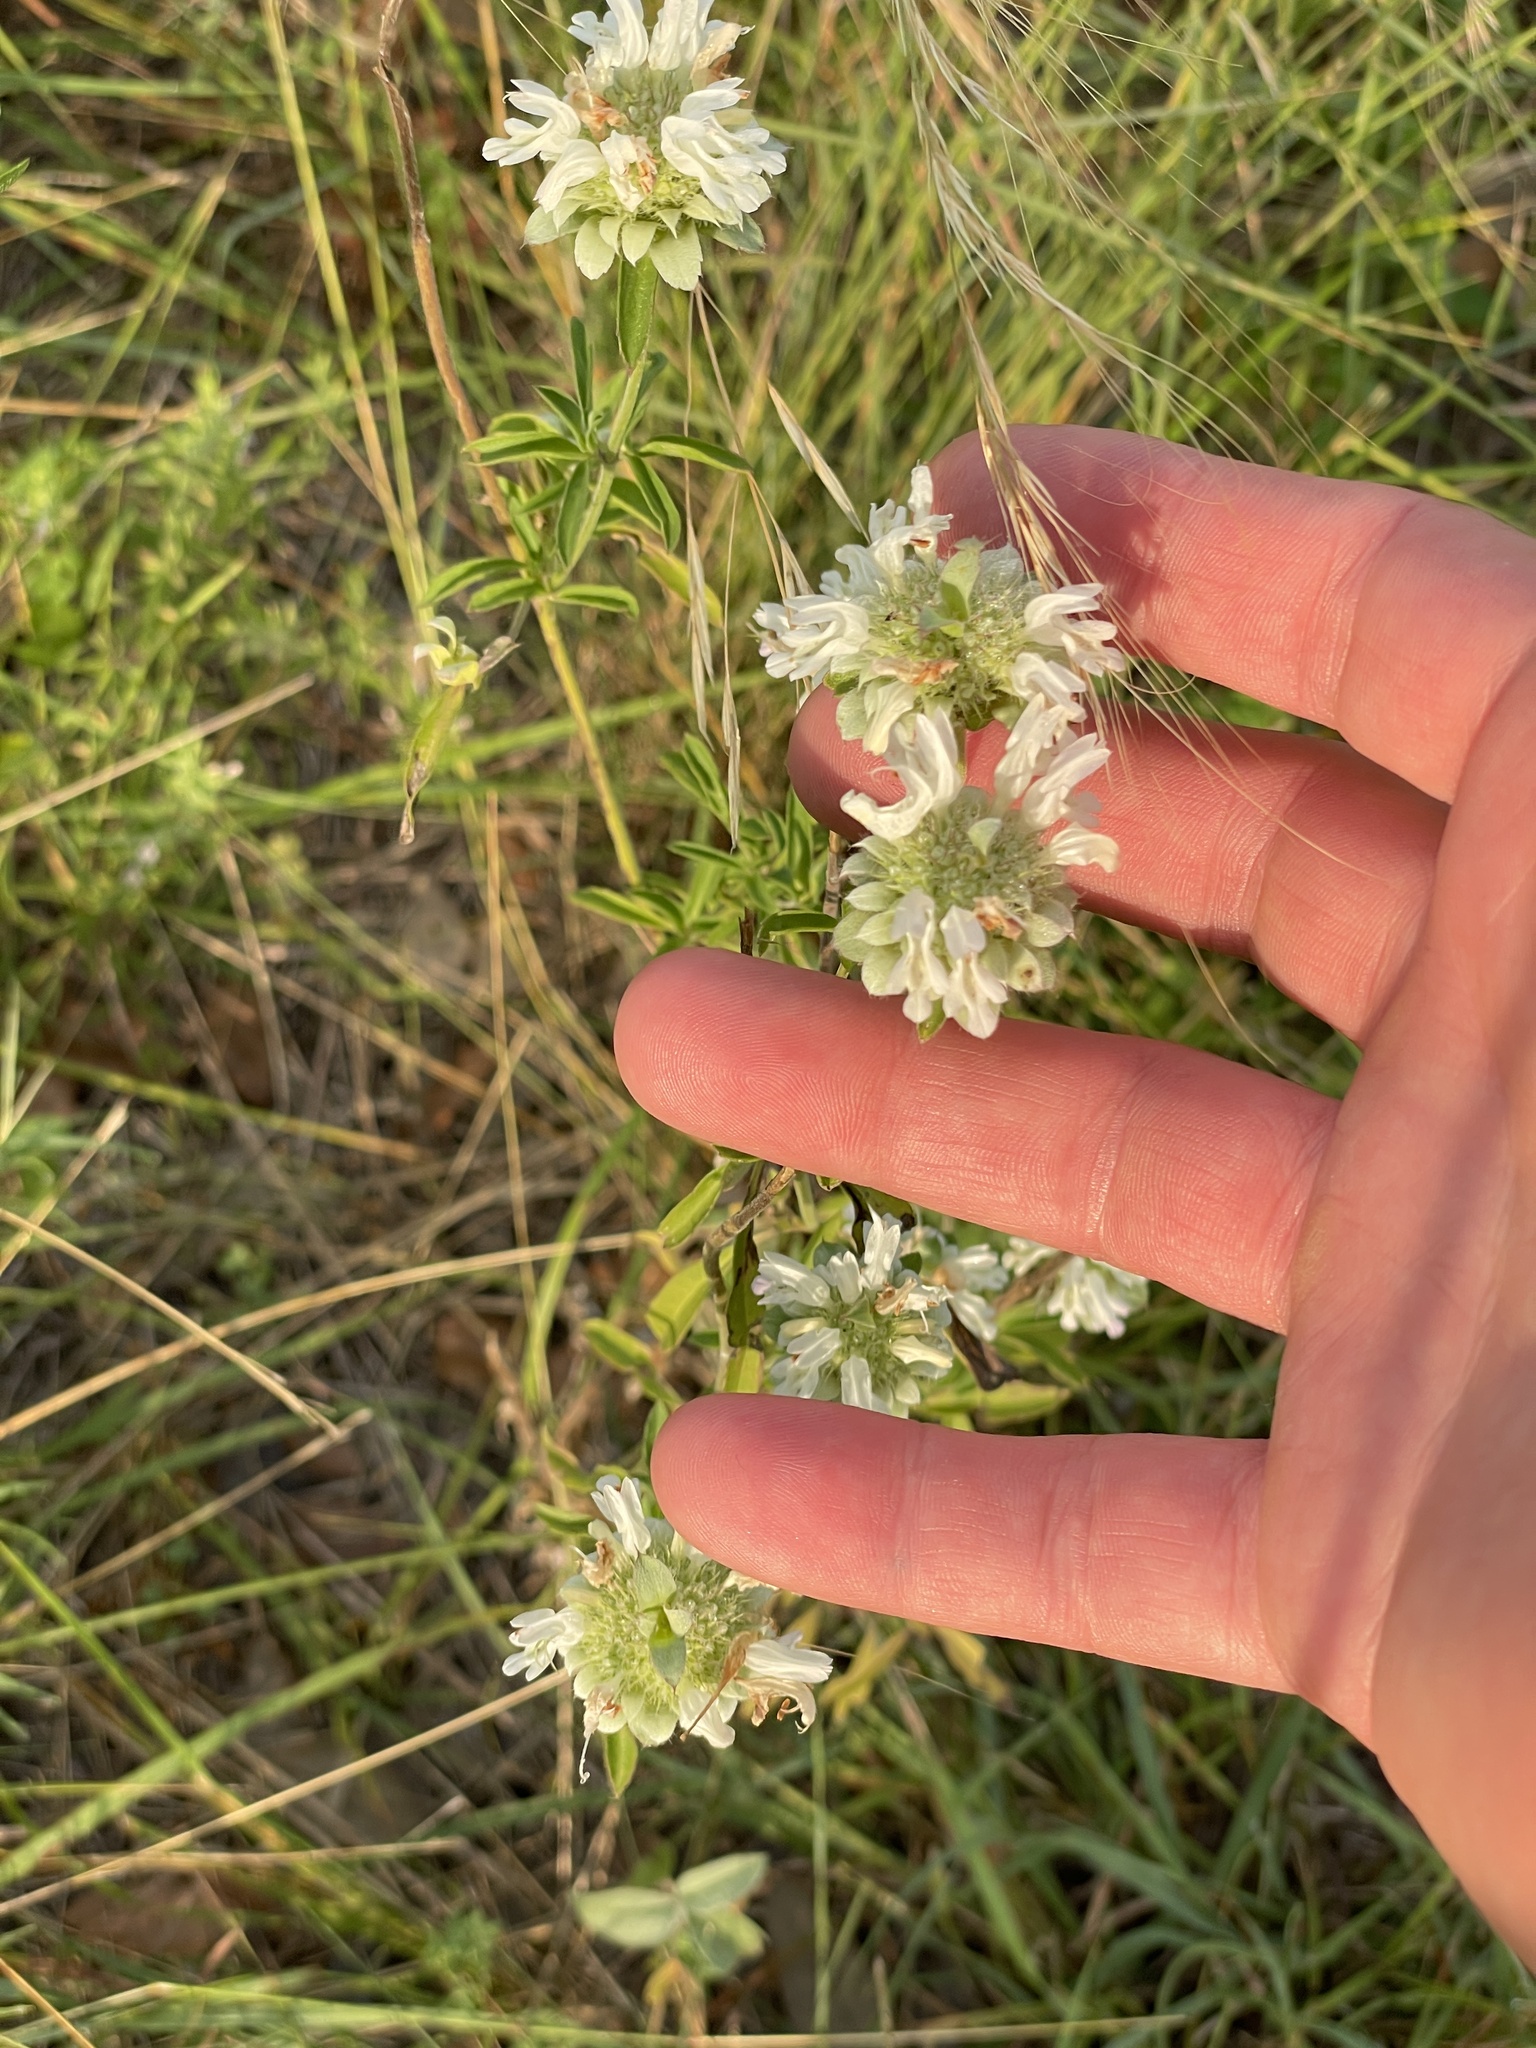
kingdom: Plantae
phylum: Tracheophyta
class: Magnoliopsida
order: Lamiales
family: Lamiaceae
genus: Monarda
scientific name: Monarda citriodora
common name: Lemon beebalm
